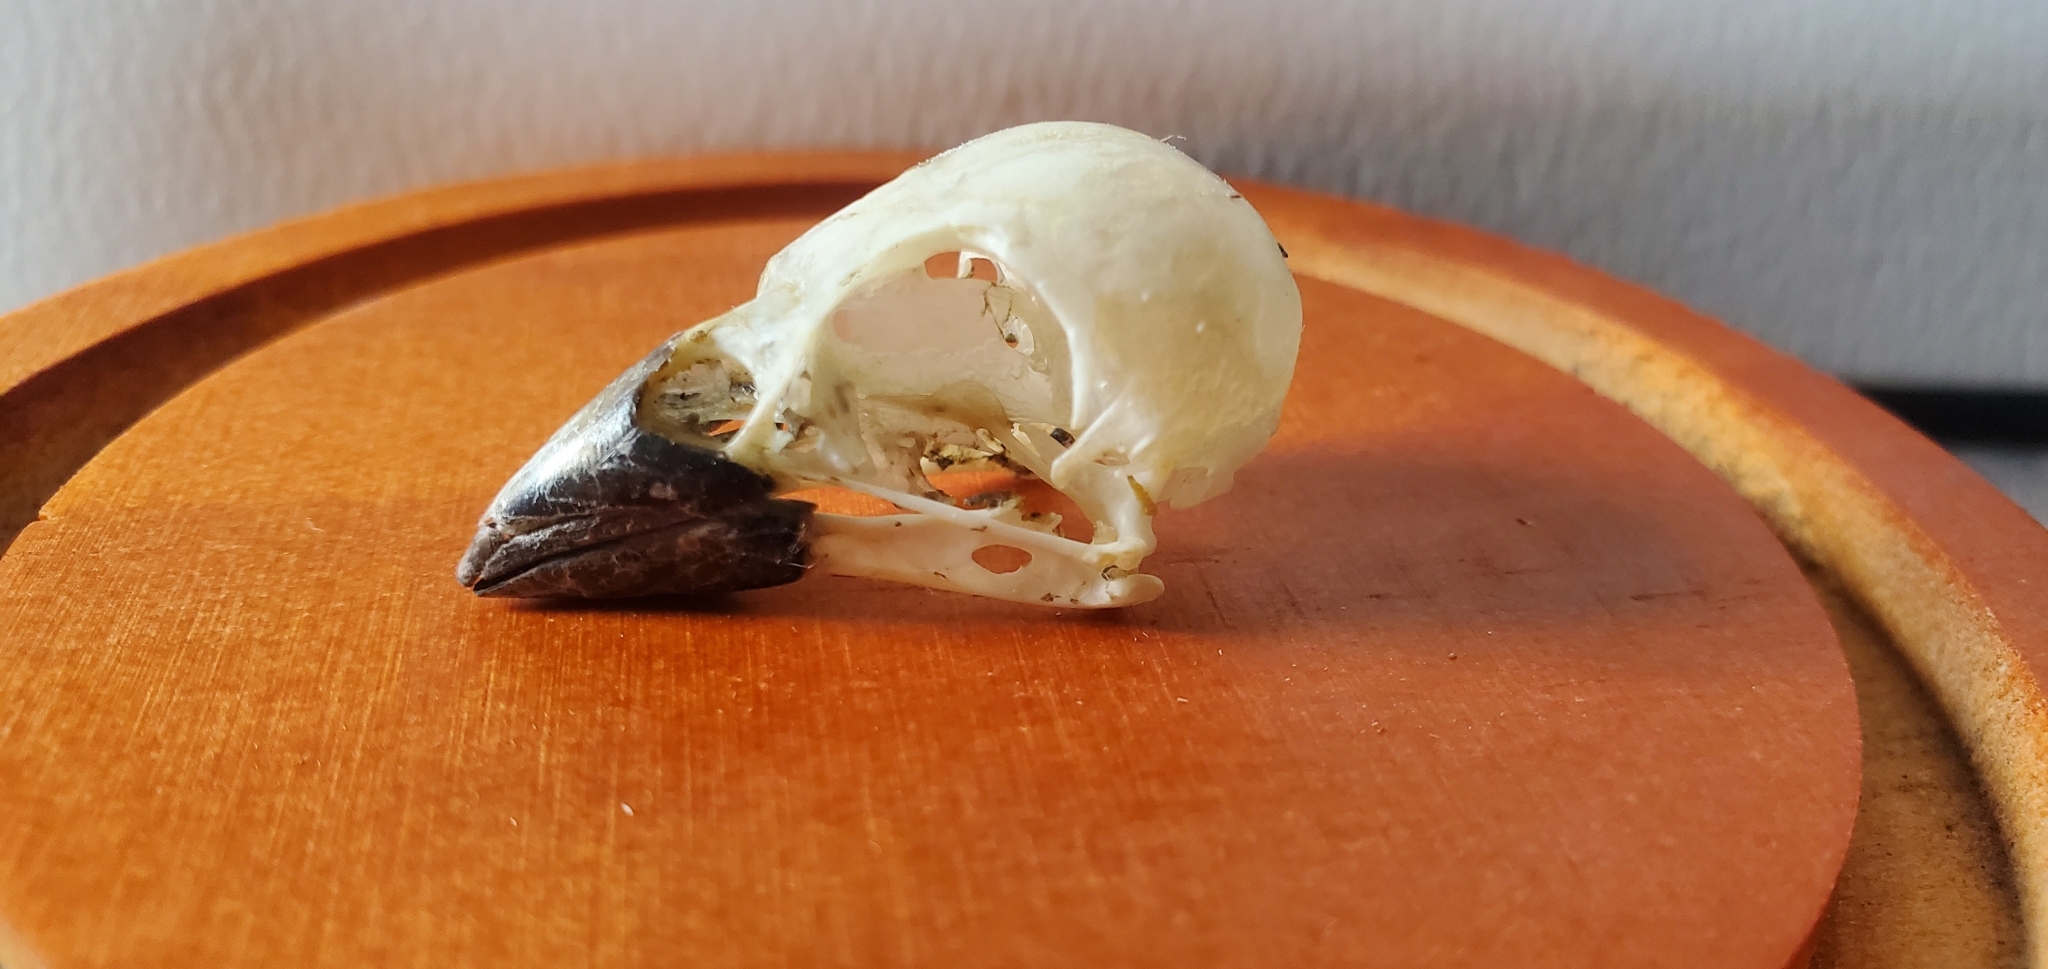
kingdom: Animalia
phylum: Chordata
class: Aves
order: Passeriformes
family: Passeridae
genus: Passer
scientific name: Passer domesticus
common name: House sparrow
